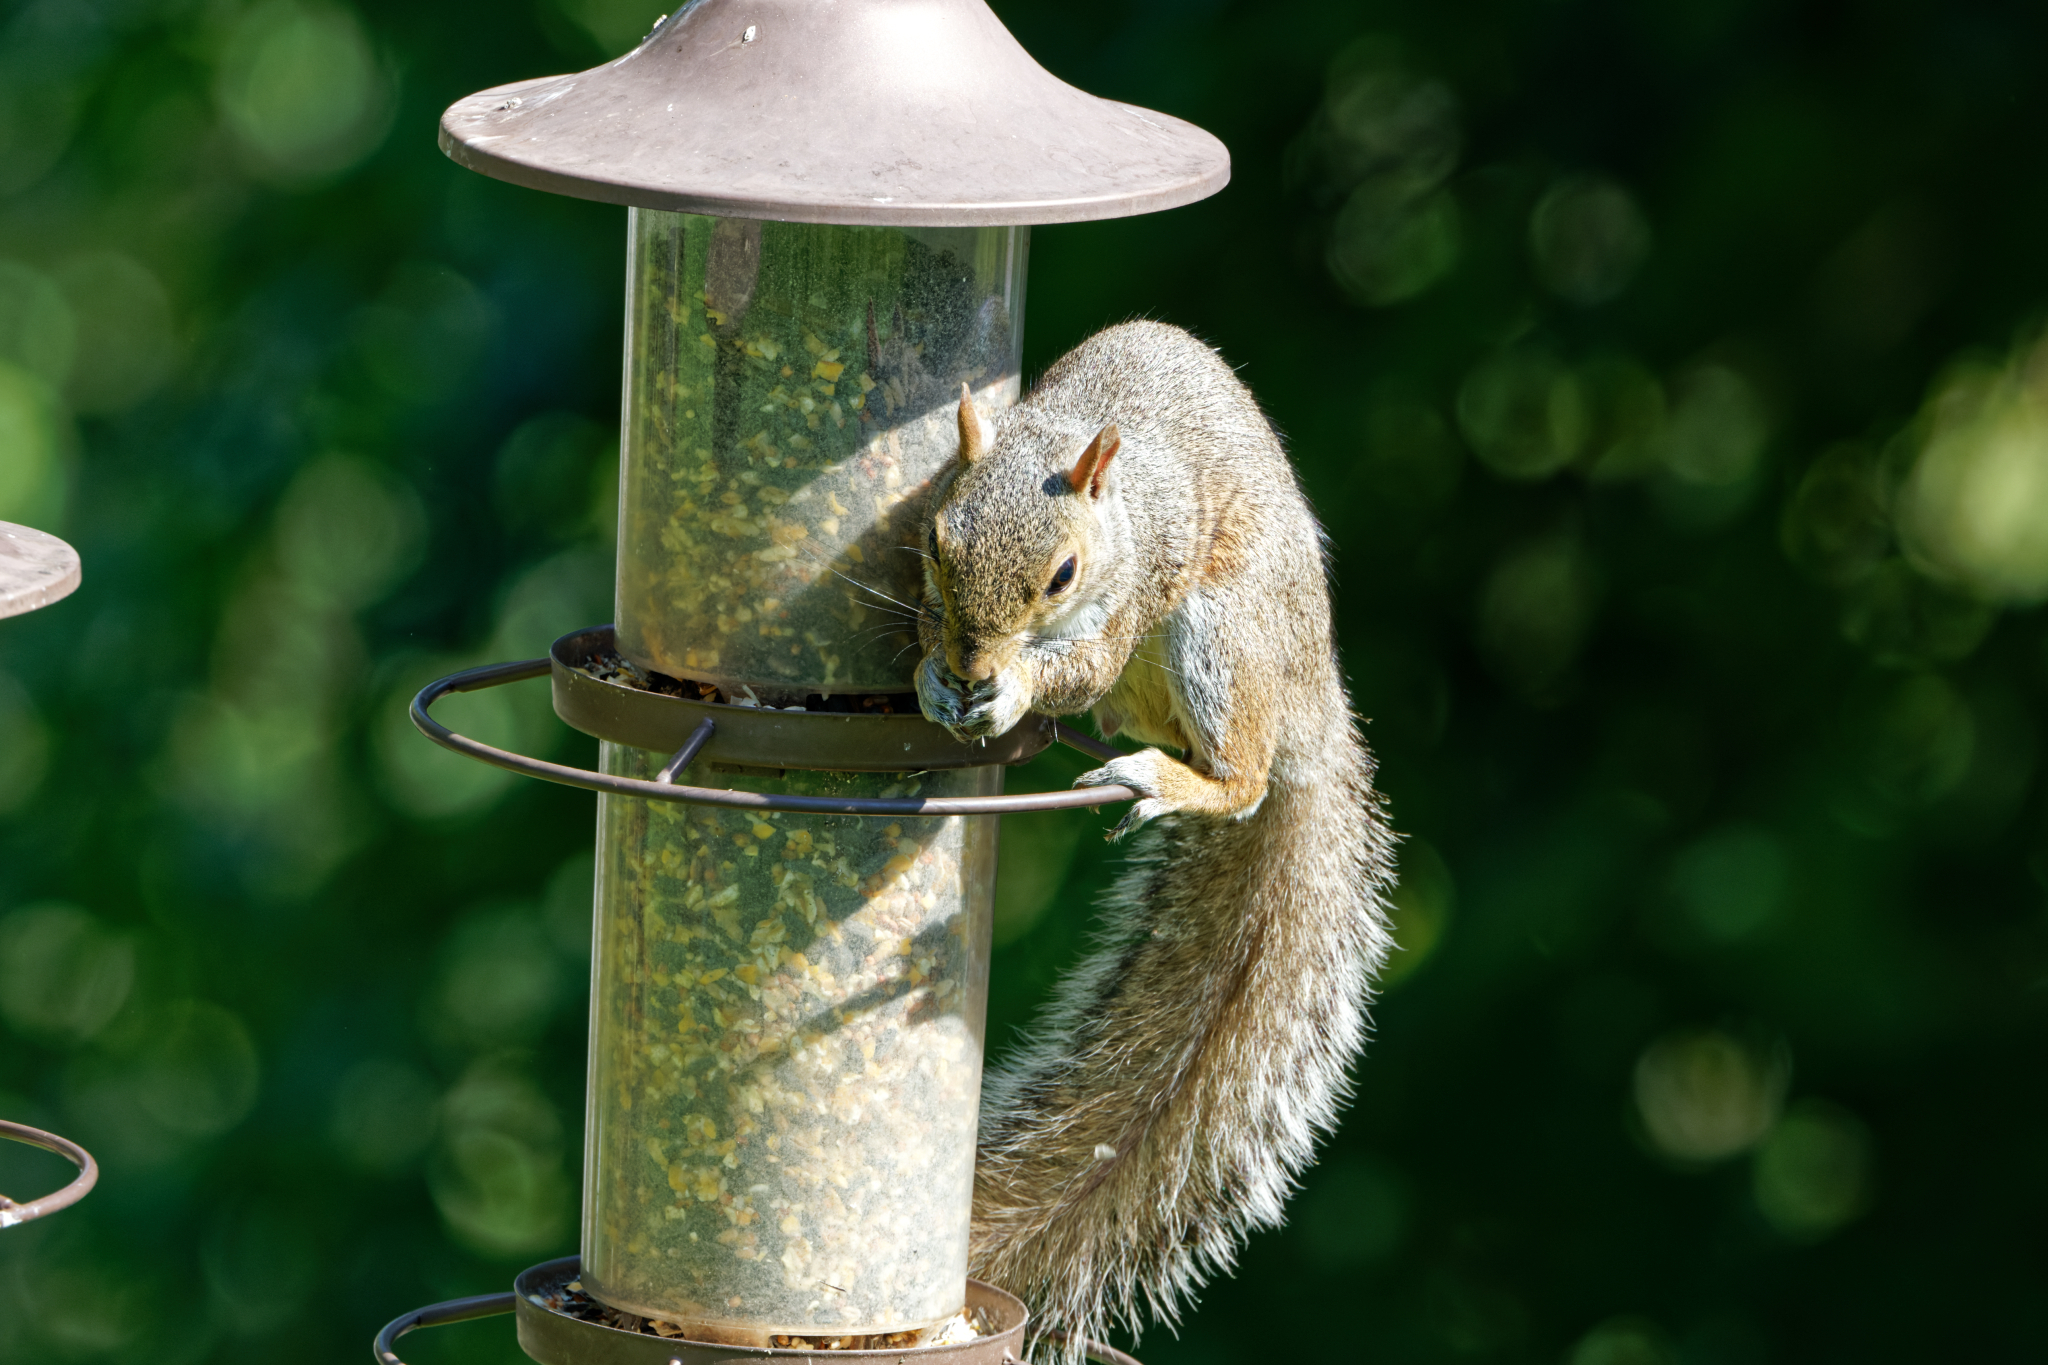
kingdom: Animalia
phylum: Chordata
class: Mammalia
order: Rodentia
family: Sciuridae
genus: Sciurus
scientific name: Sciurus carolinensis
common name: Eastern gray squirrel
